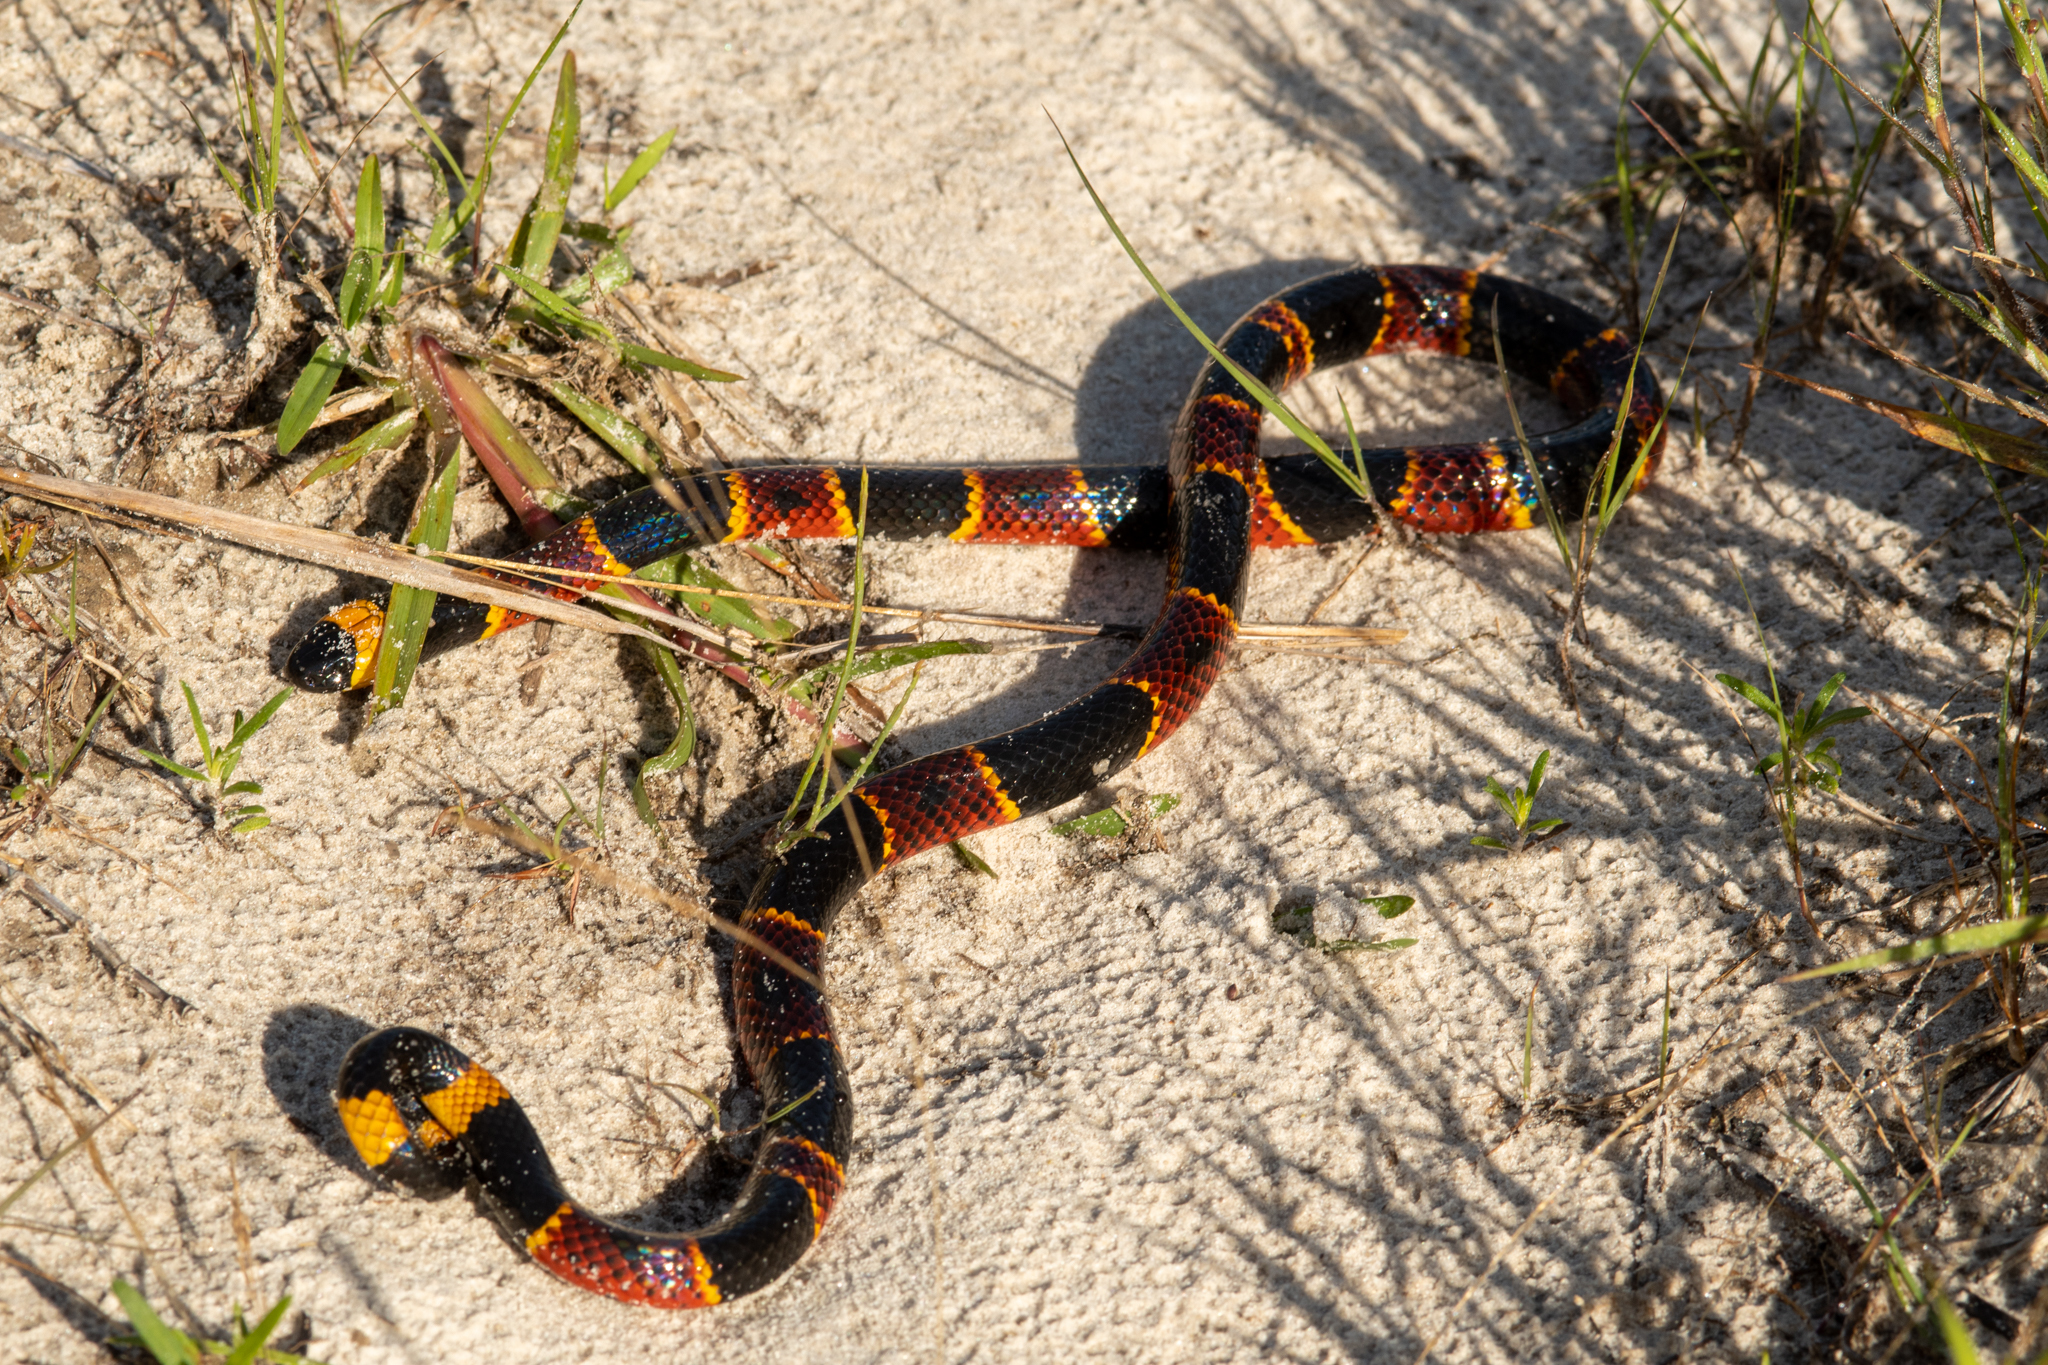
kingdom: Animalia
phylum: Chordata
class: Squamata
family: Elapidae
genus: Micrurus
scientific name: Micrurus fulvius
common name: Eastern coral snake
